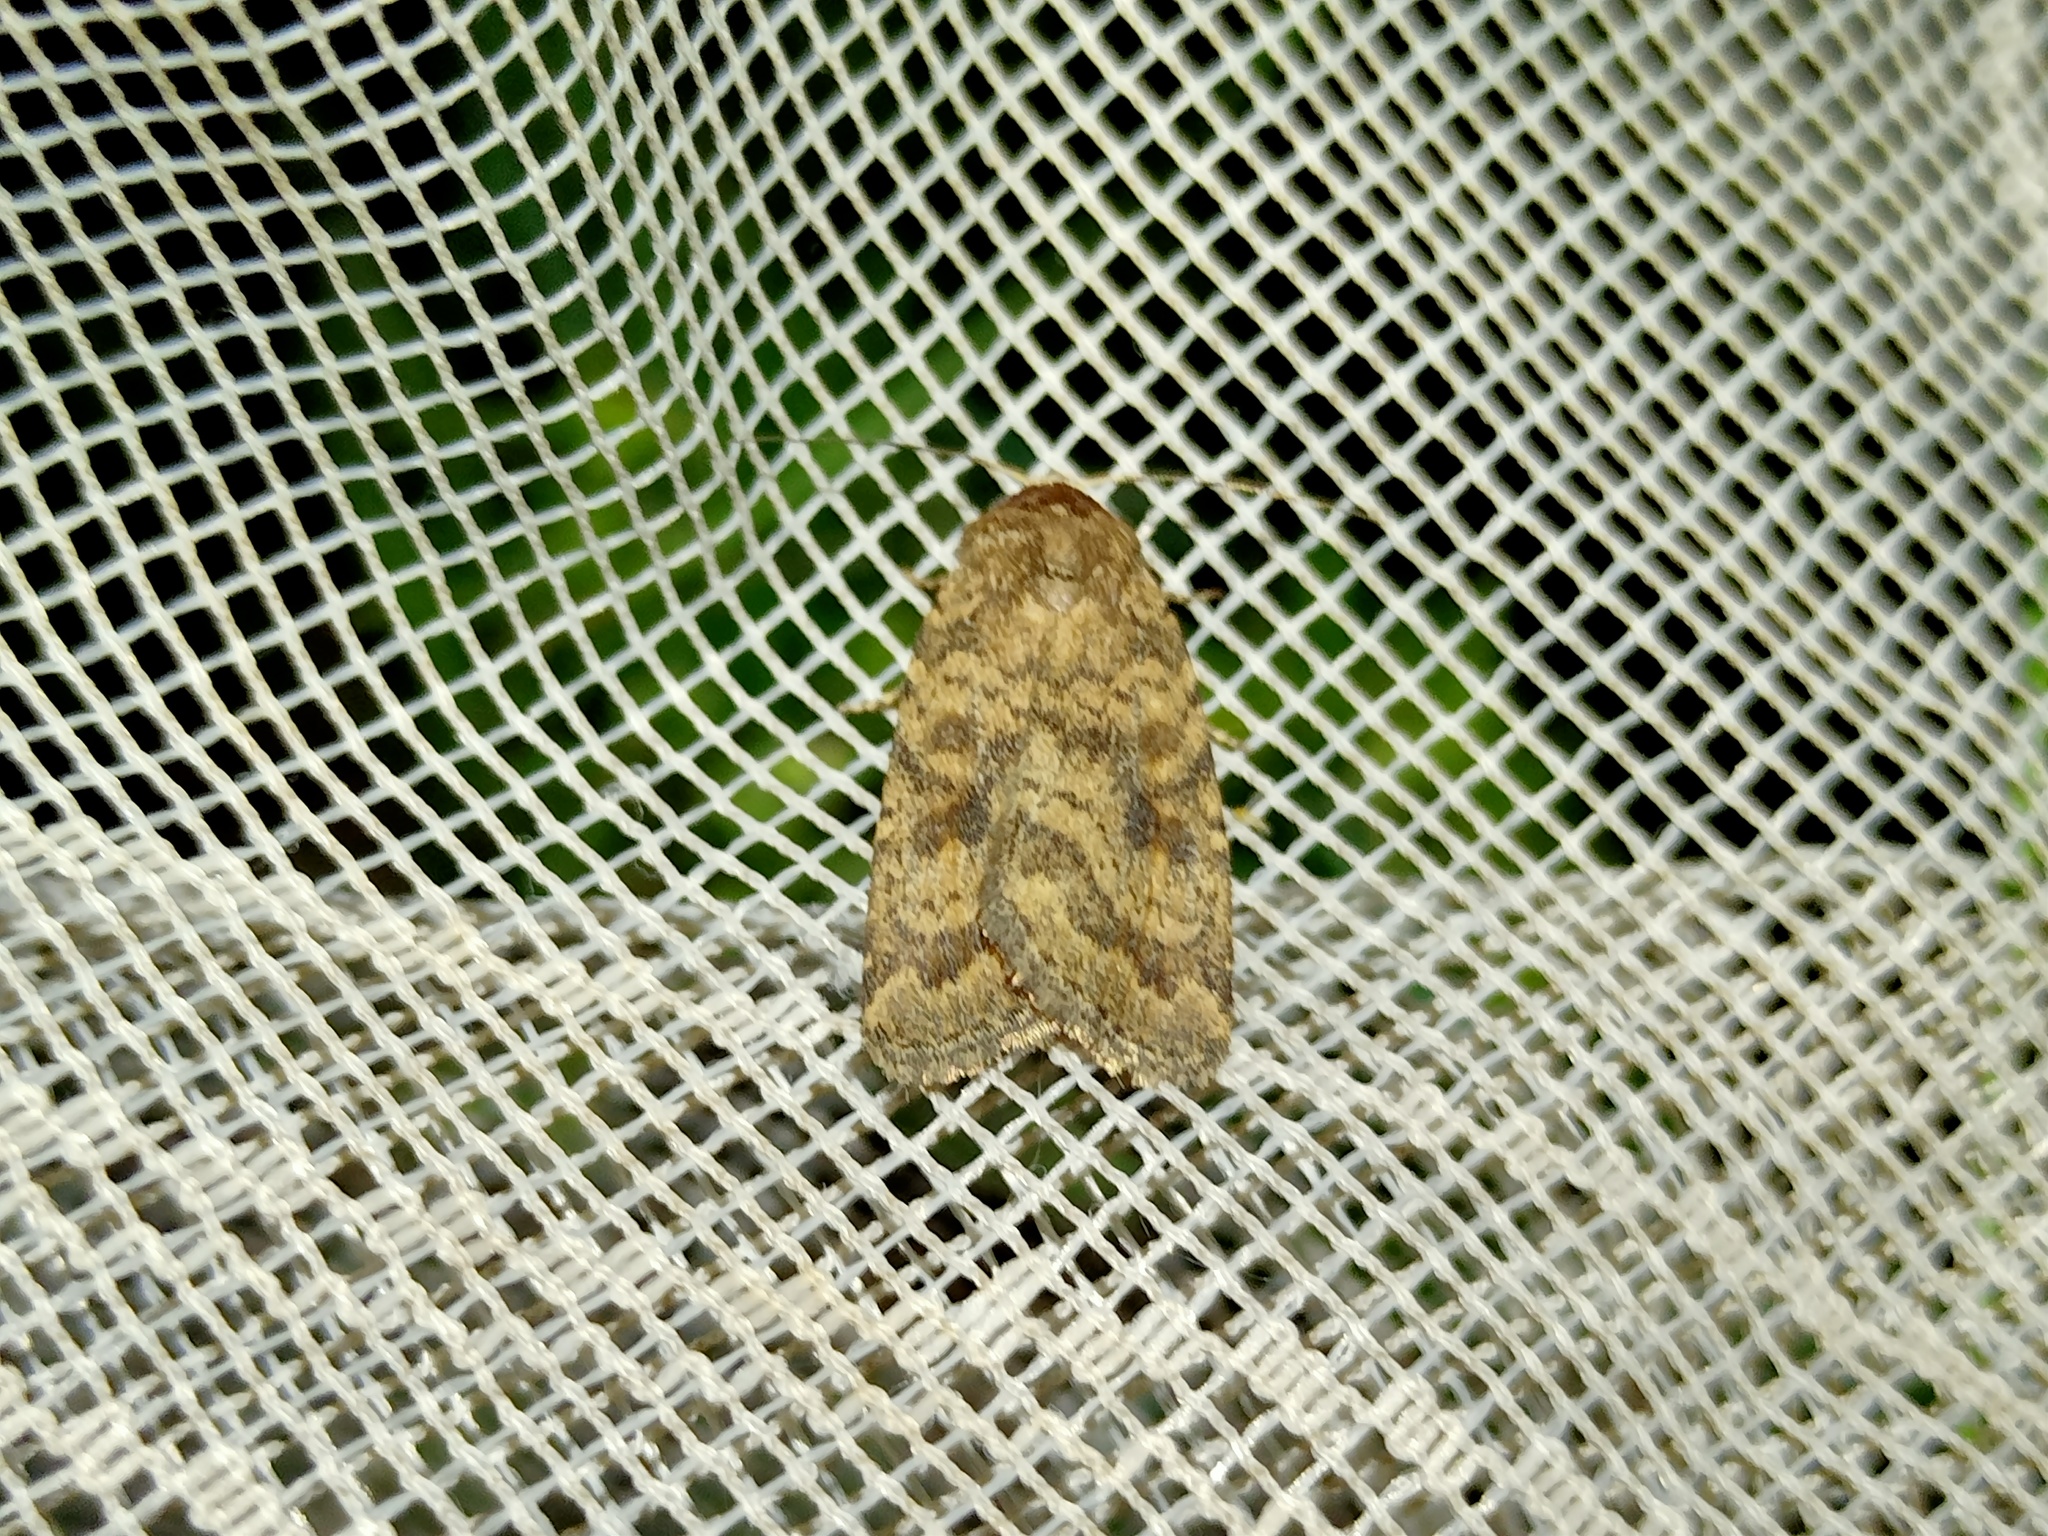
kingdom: Animalia
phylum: Arthropoda
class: Insecta
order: Lepidoptera
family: Noctuidae
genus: Caradrina
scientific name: Caradrina morpheus
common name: Mottled rustic
